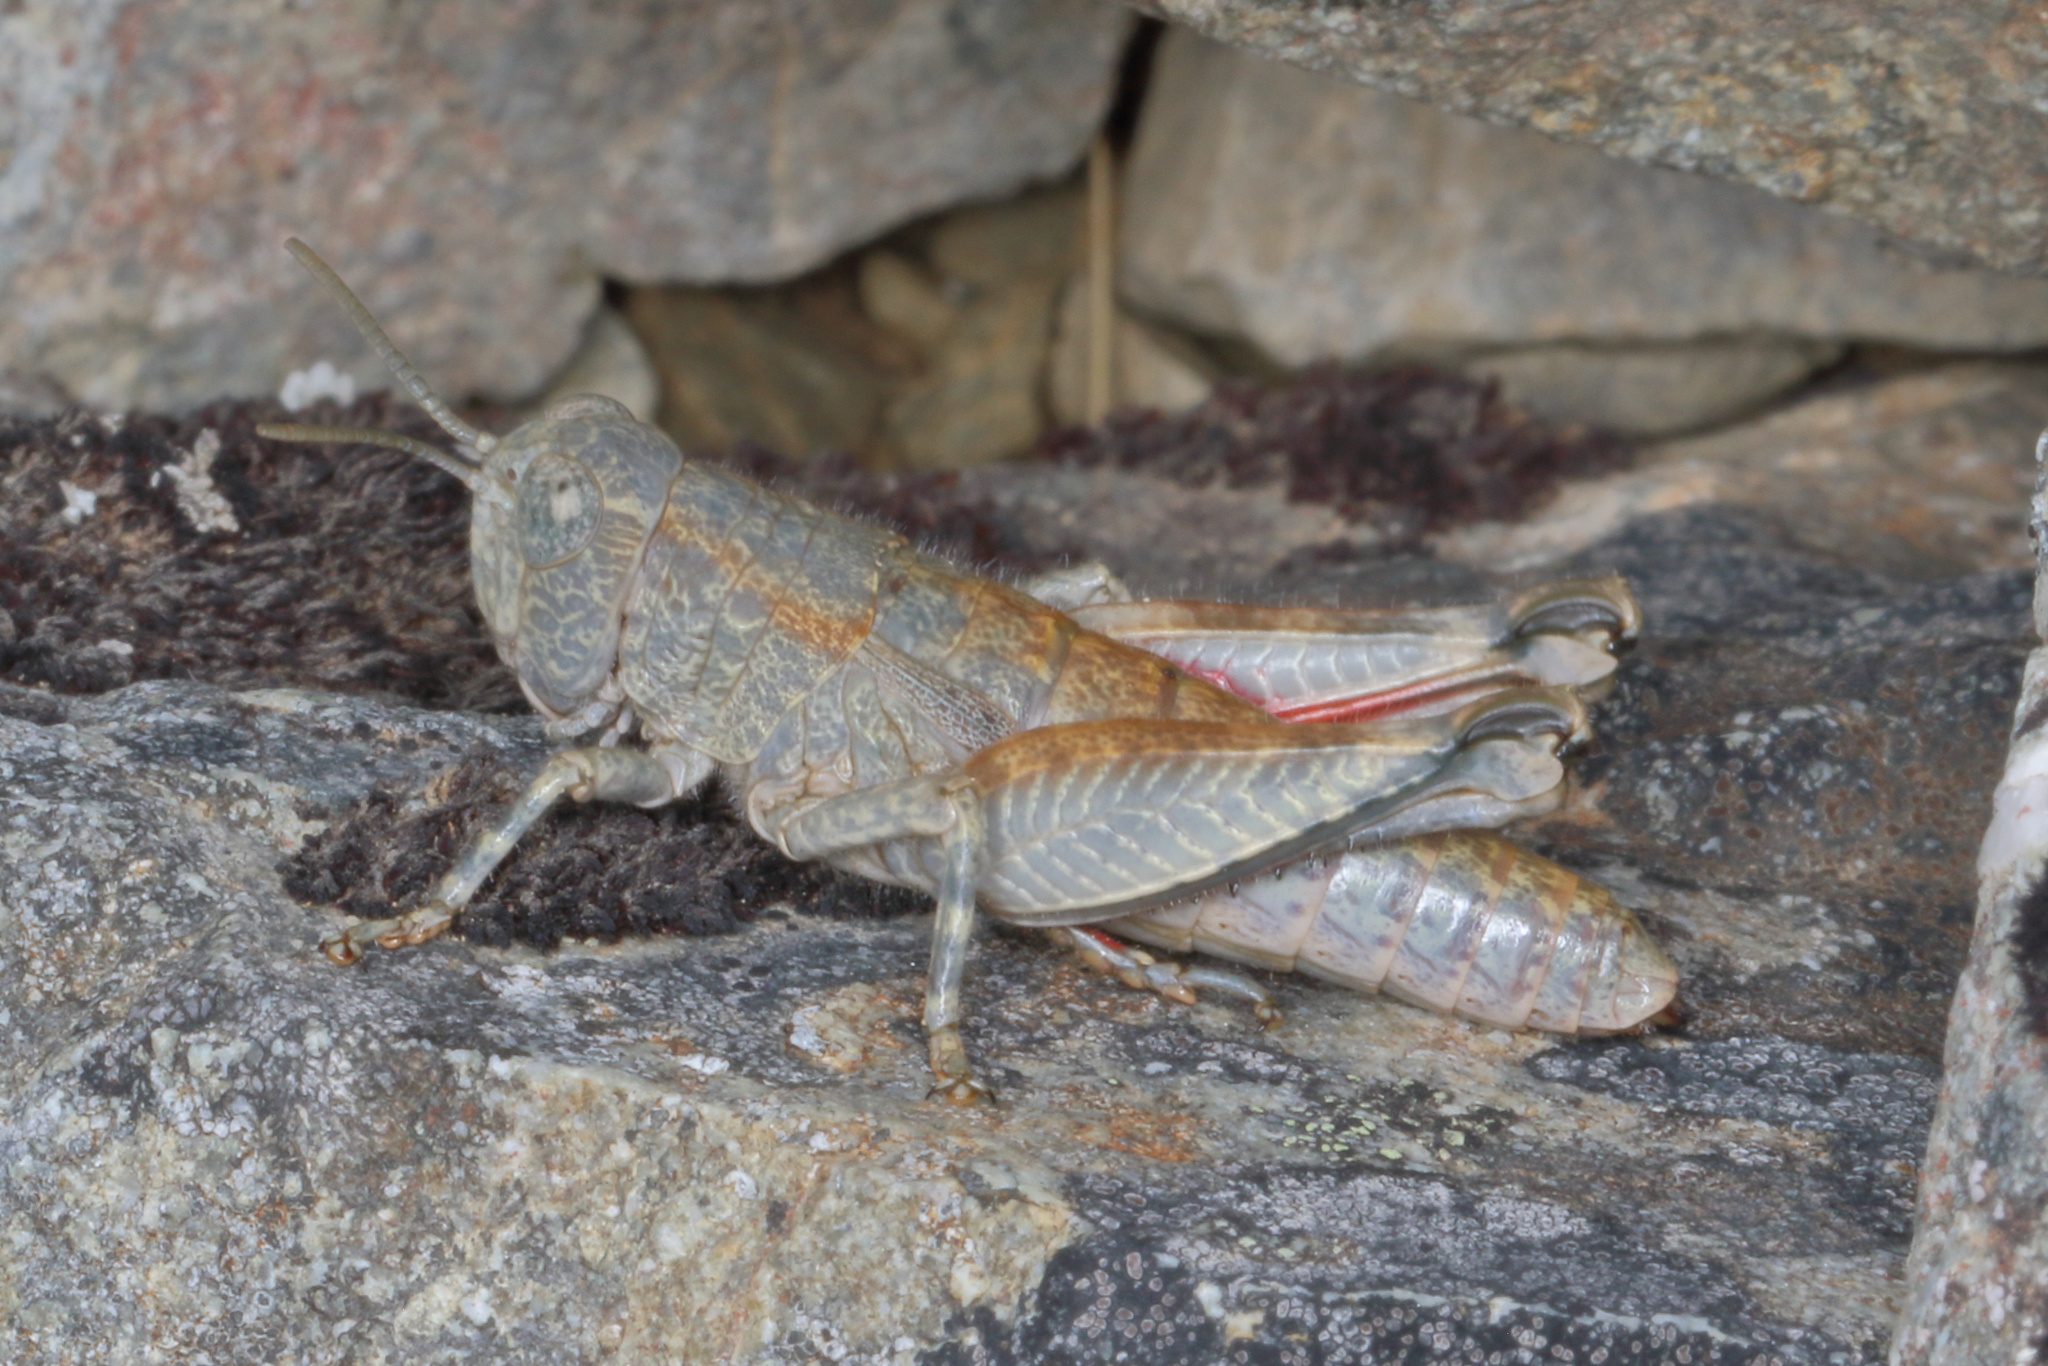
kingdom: Animalia
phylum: Arthropoda
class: Insecta
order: Orthoptera
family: Acrididae
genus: Sigaus
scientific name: Sigaus
